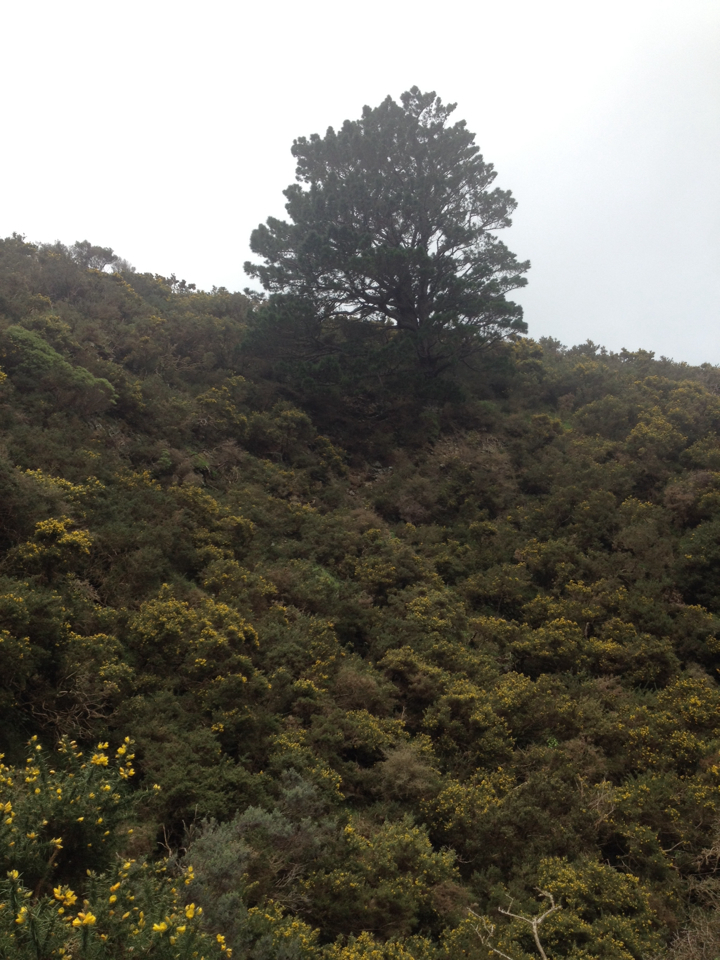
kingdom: Plantae
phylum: Tracheophyta
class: Pinopsida
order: Pinales
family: Pinaceae
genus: Pinus
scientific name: Pinus radiata
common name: Monterey pine
